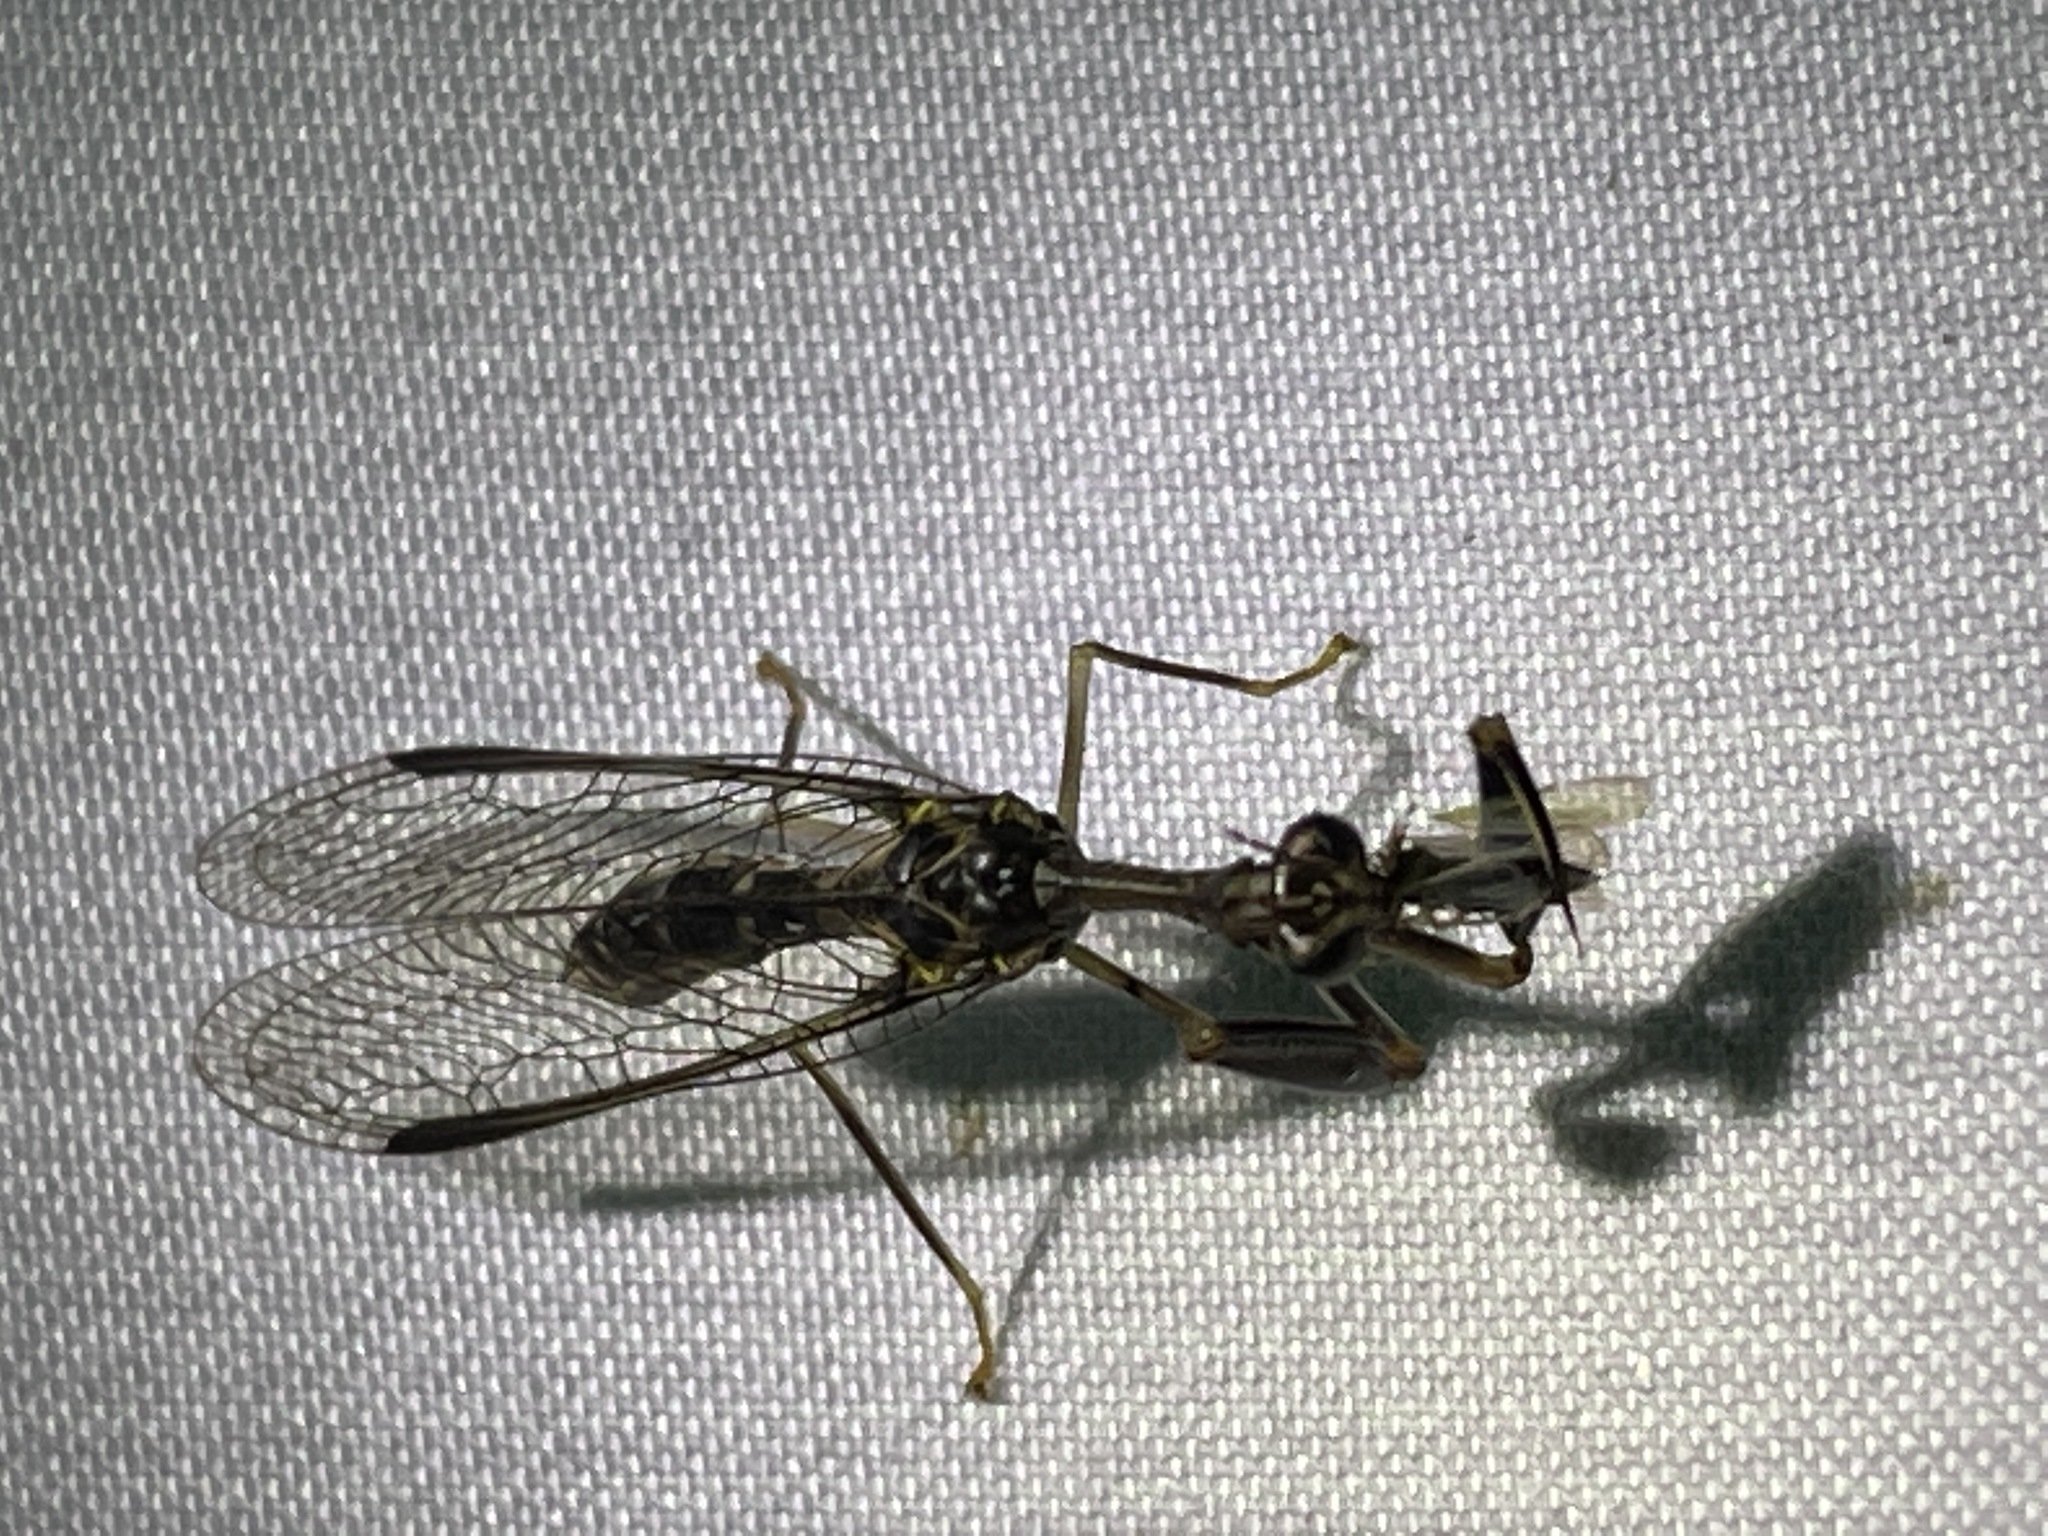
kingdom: Animalia
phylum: Arthropoda
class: Insecta
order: Neuroptera
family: Mantispidae
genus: Dicromantispa
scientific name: Dicromantispa sayi
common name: Say's mantidfly
